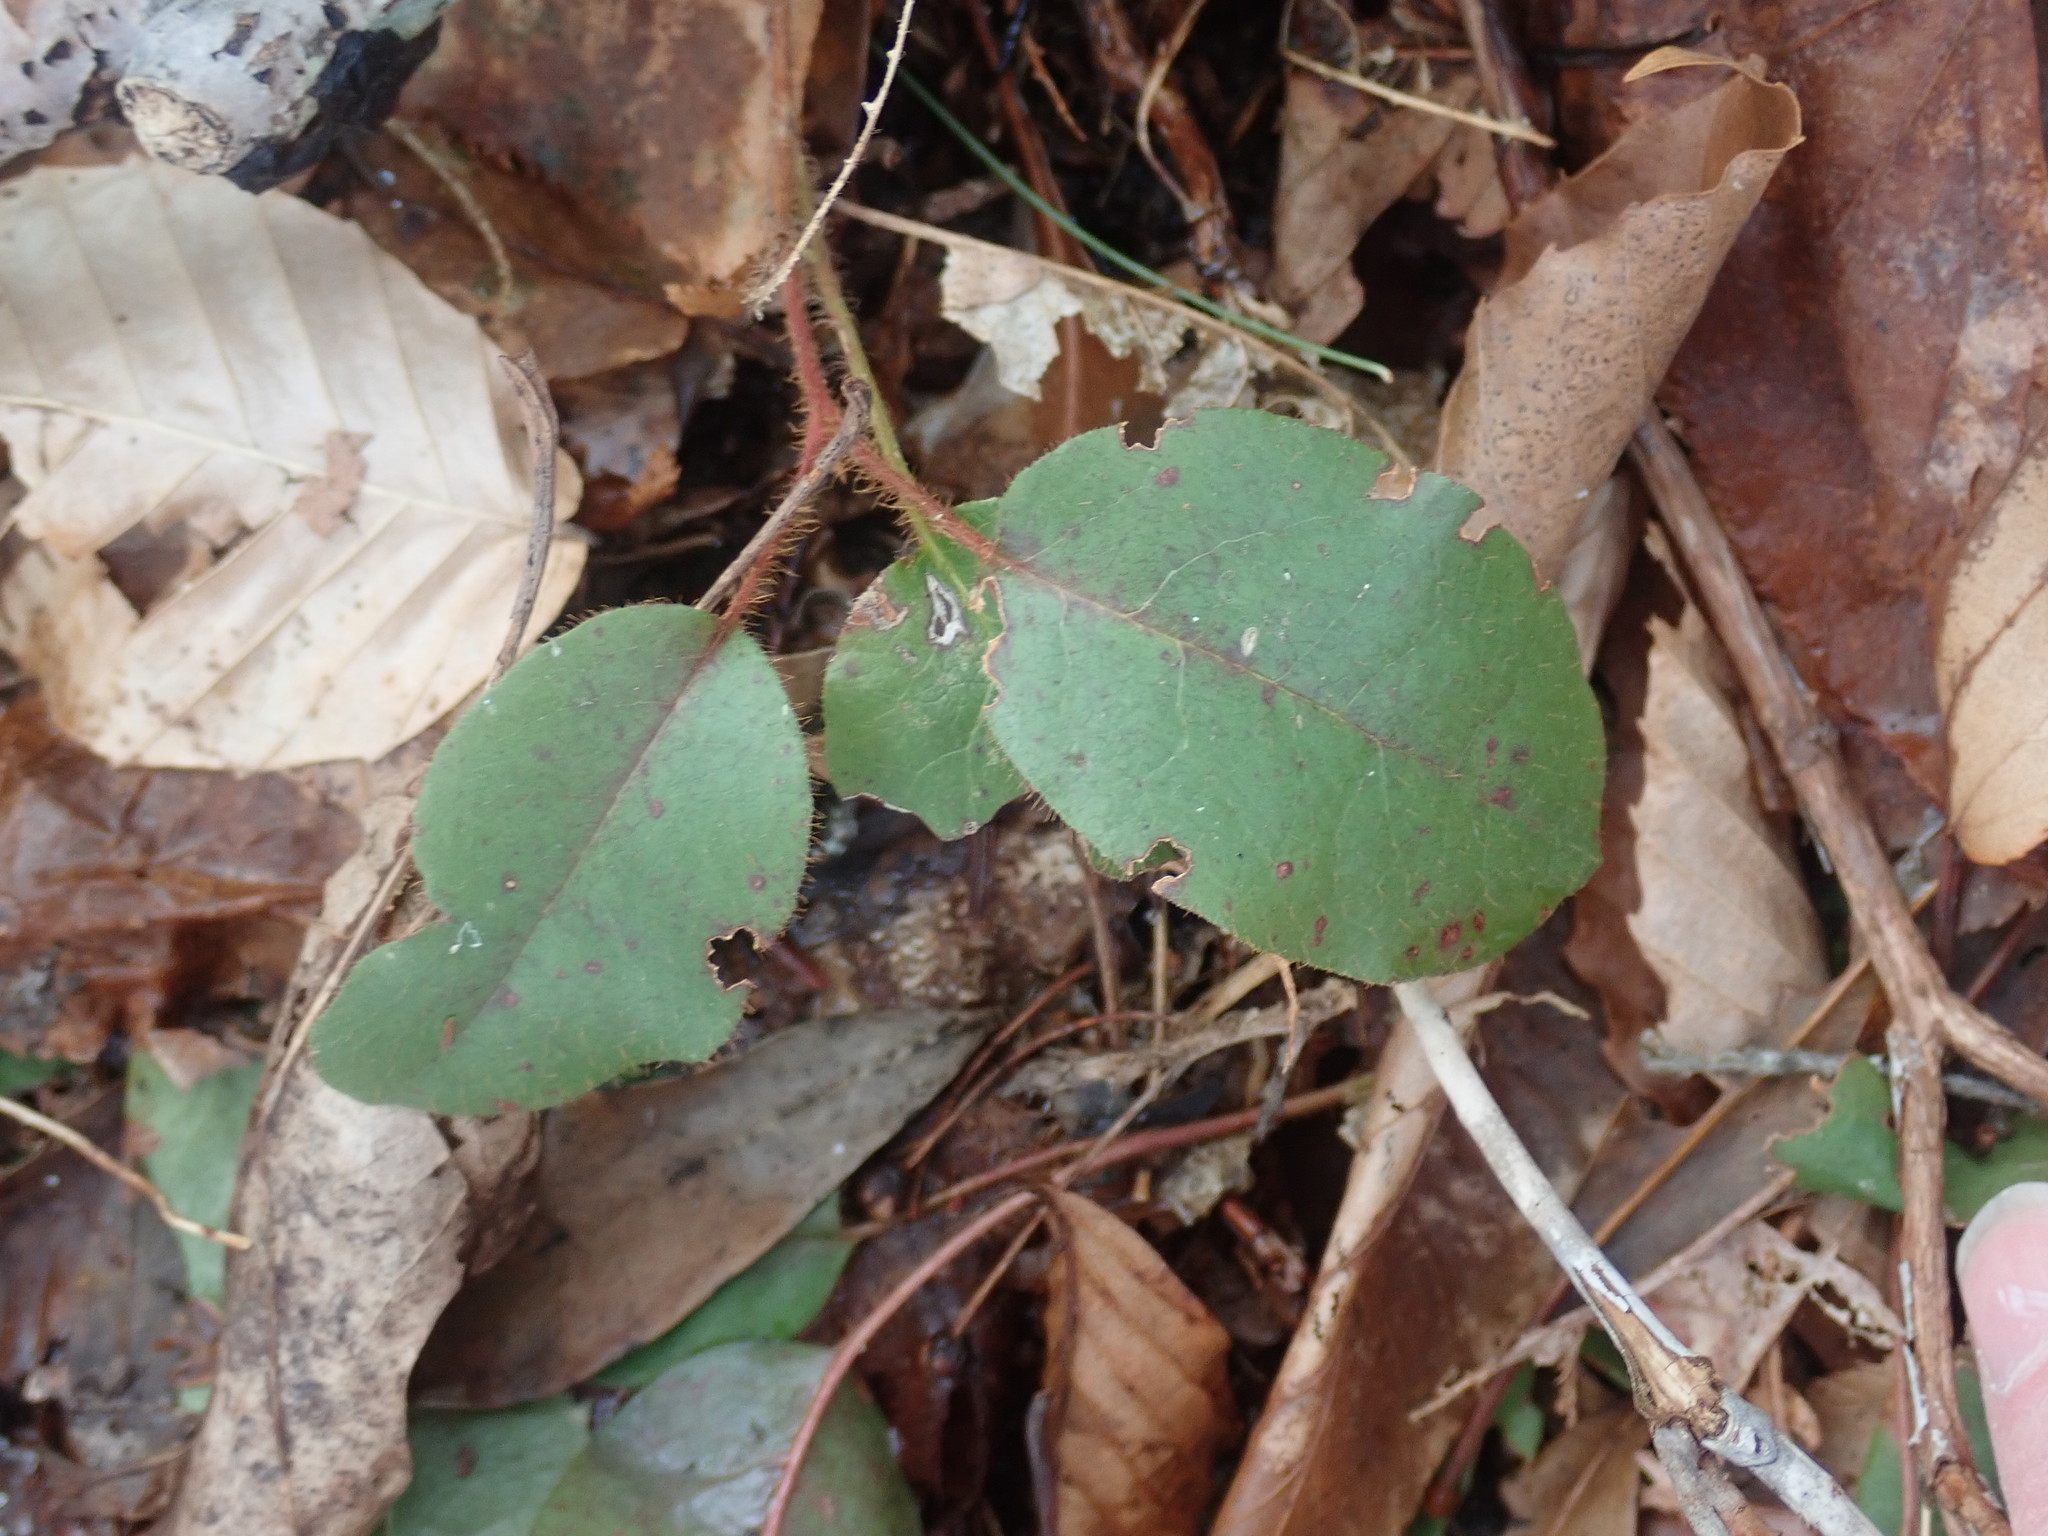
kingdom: Plantae
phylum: Tracheophyta
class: Magnoliopsida
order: Ericales
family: Ericaceae
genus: Epigaea
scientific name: Epigaea repens
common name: Gravelroot
